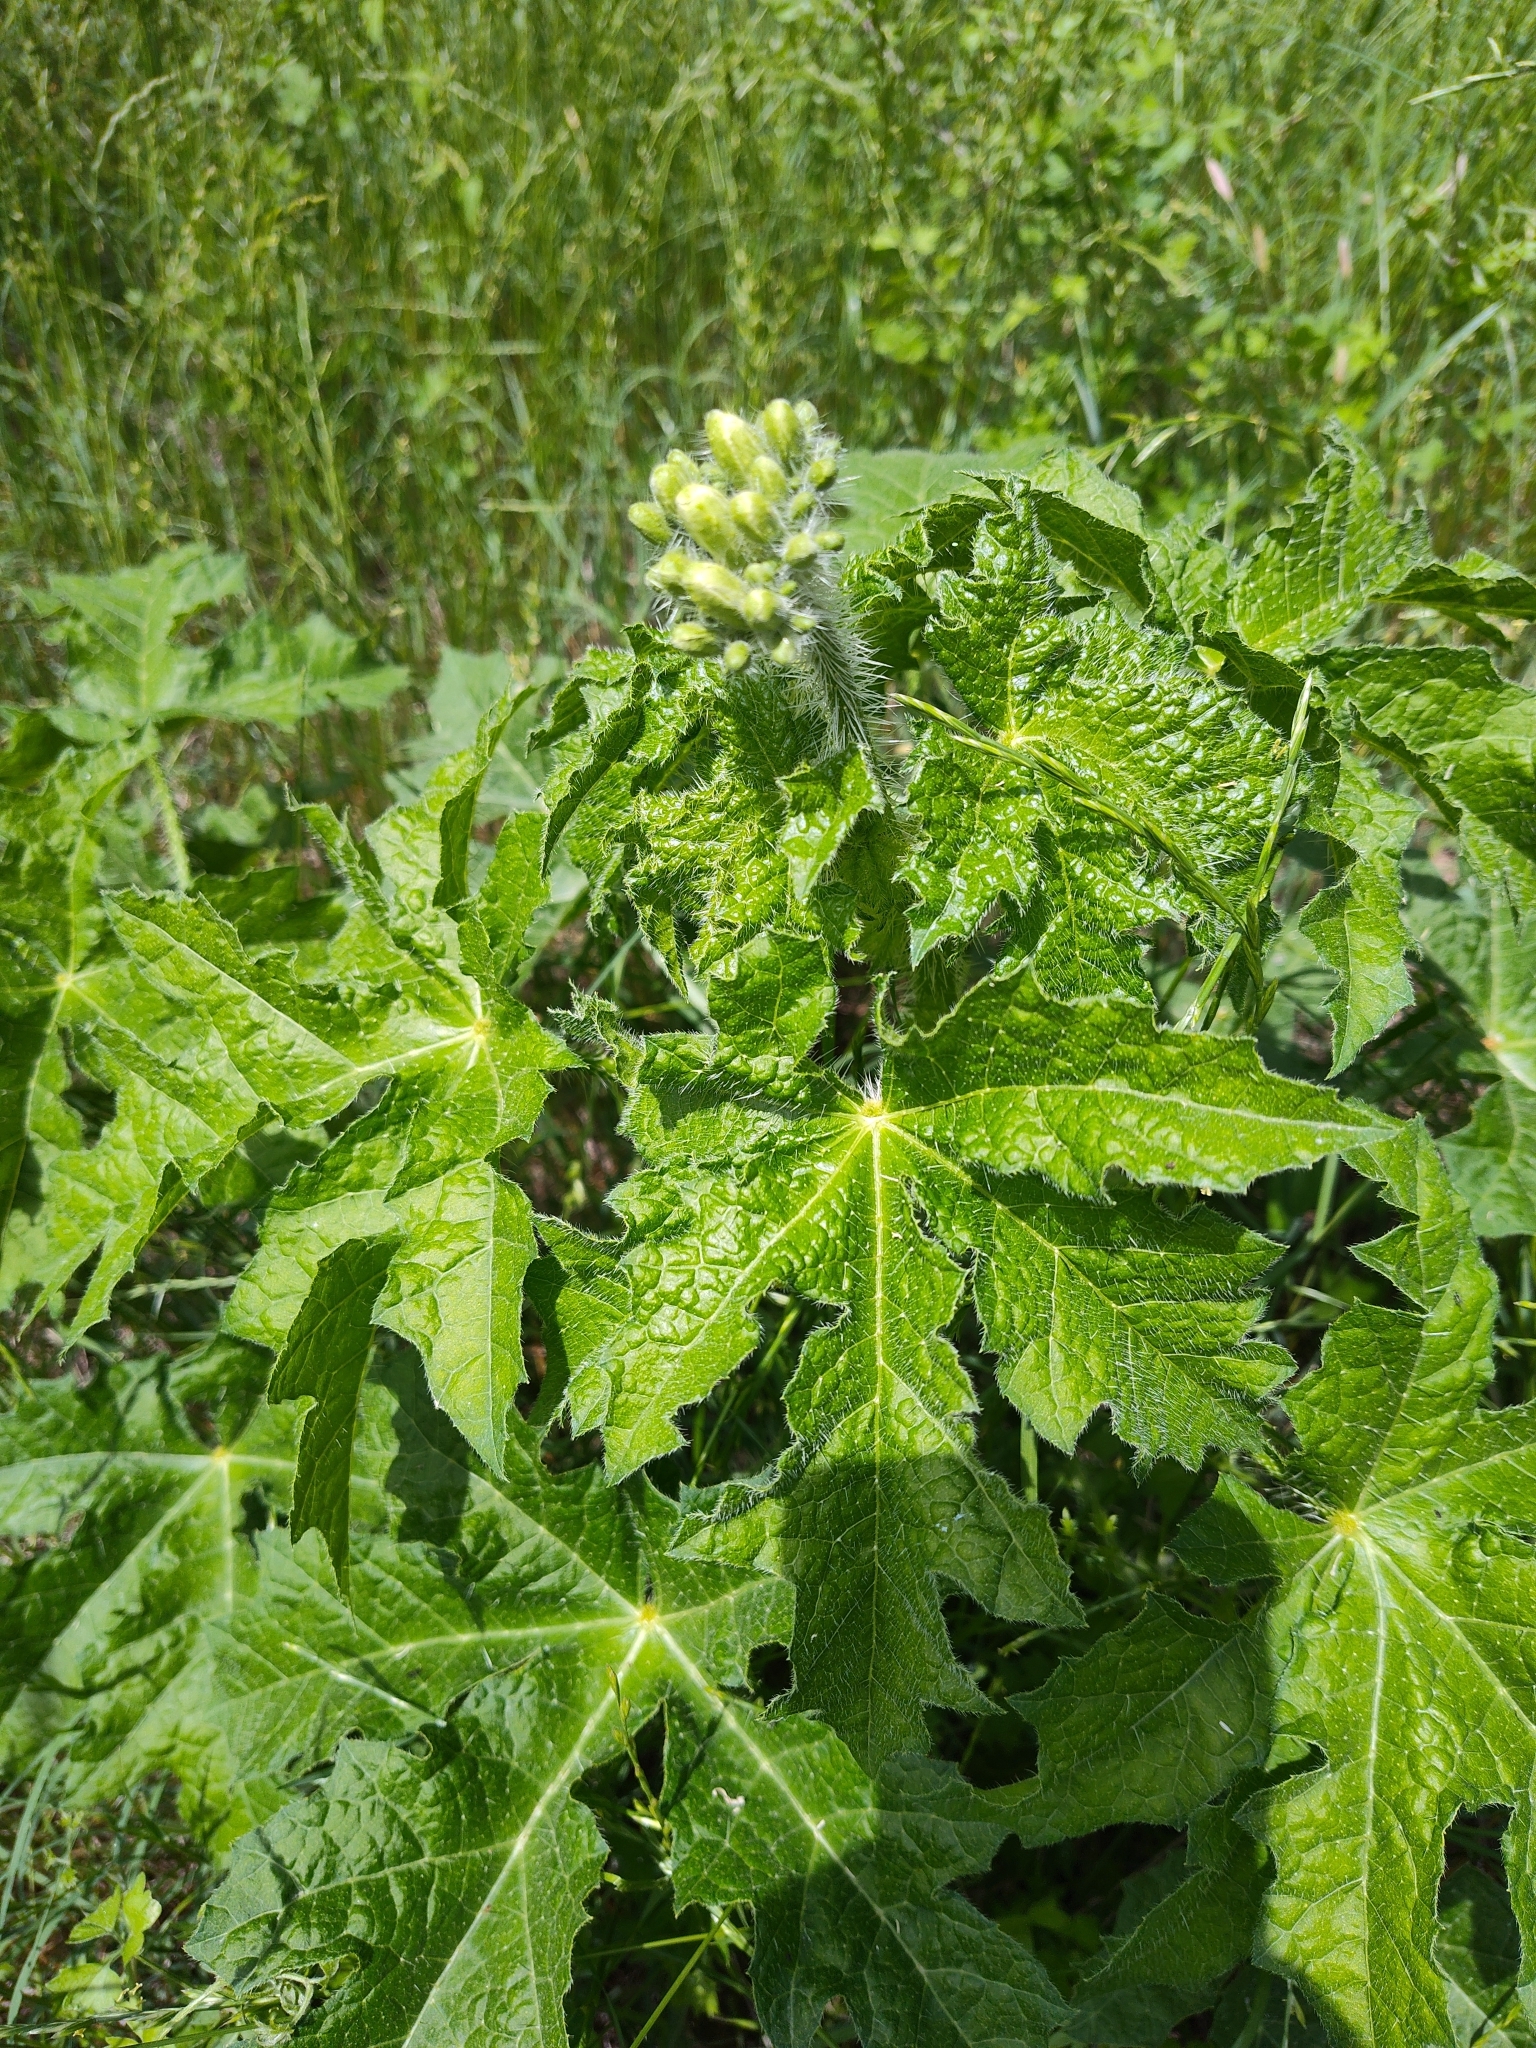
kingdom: Plantae
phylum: Tracheophyta
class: Magnoliopsida
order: Malpighiales
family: Euphorbiaceae
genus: Cnidoscolus
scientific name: Cnidoscolus texanus
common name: Texas bull-nettle
